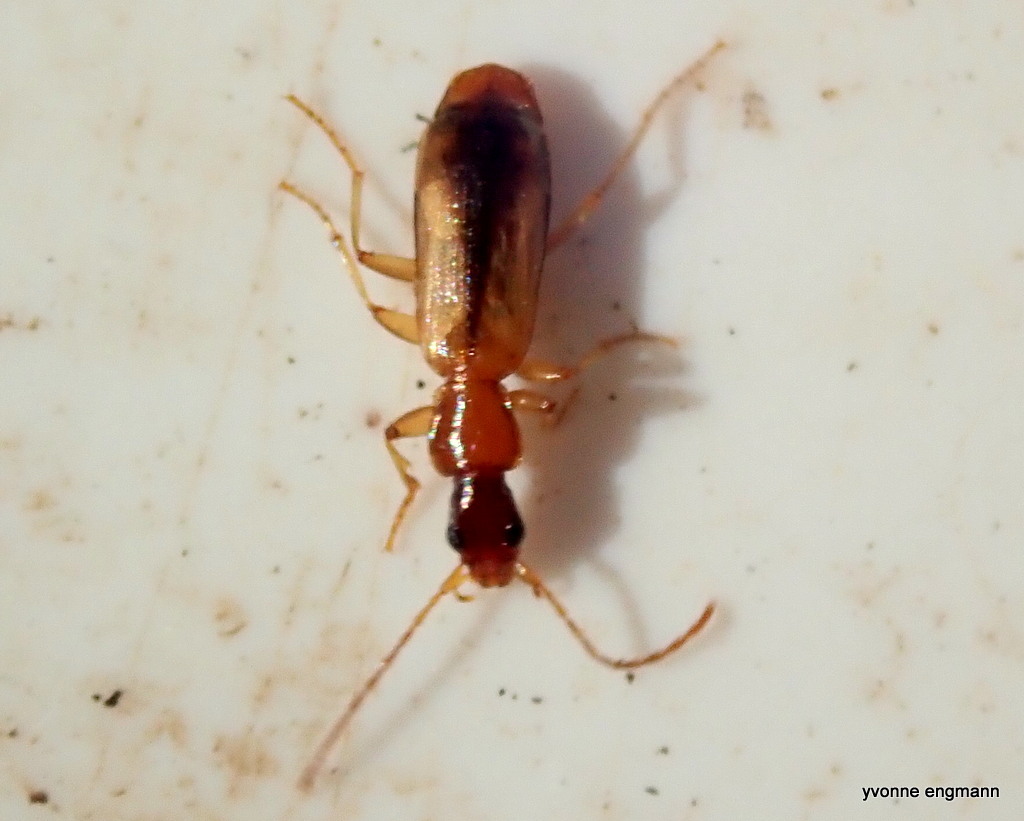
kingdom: Animalia
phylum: Arthropoda
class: Insecta
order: Coleoptera
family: Carabidae
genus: Paradromius
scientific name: Paradromius longiceps
